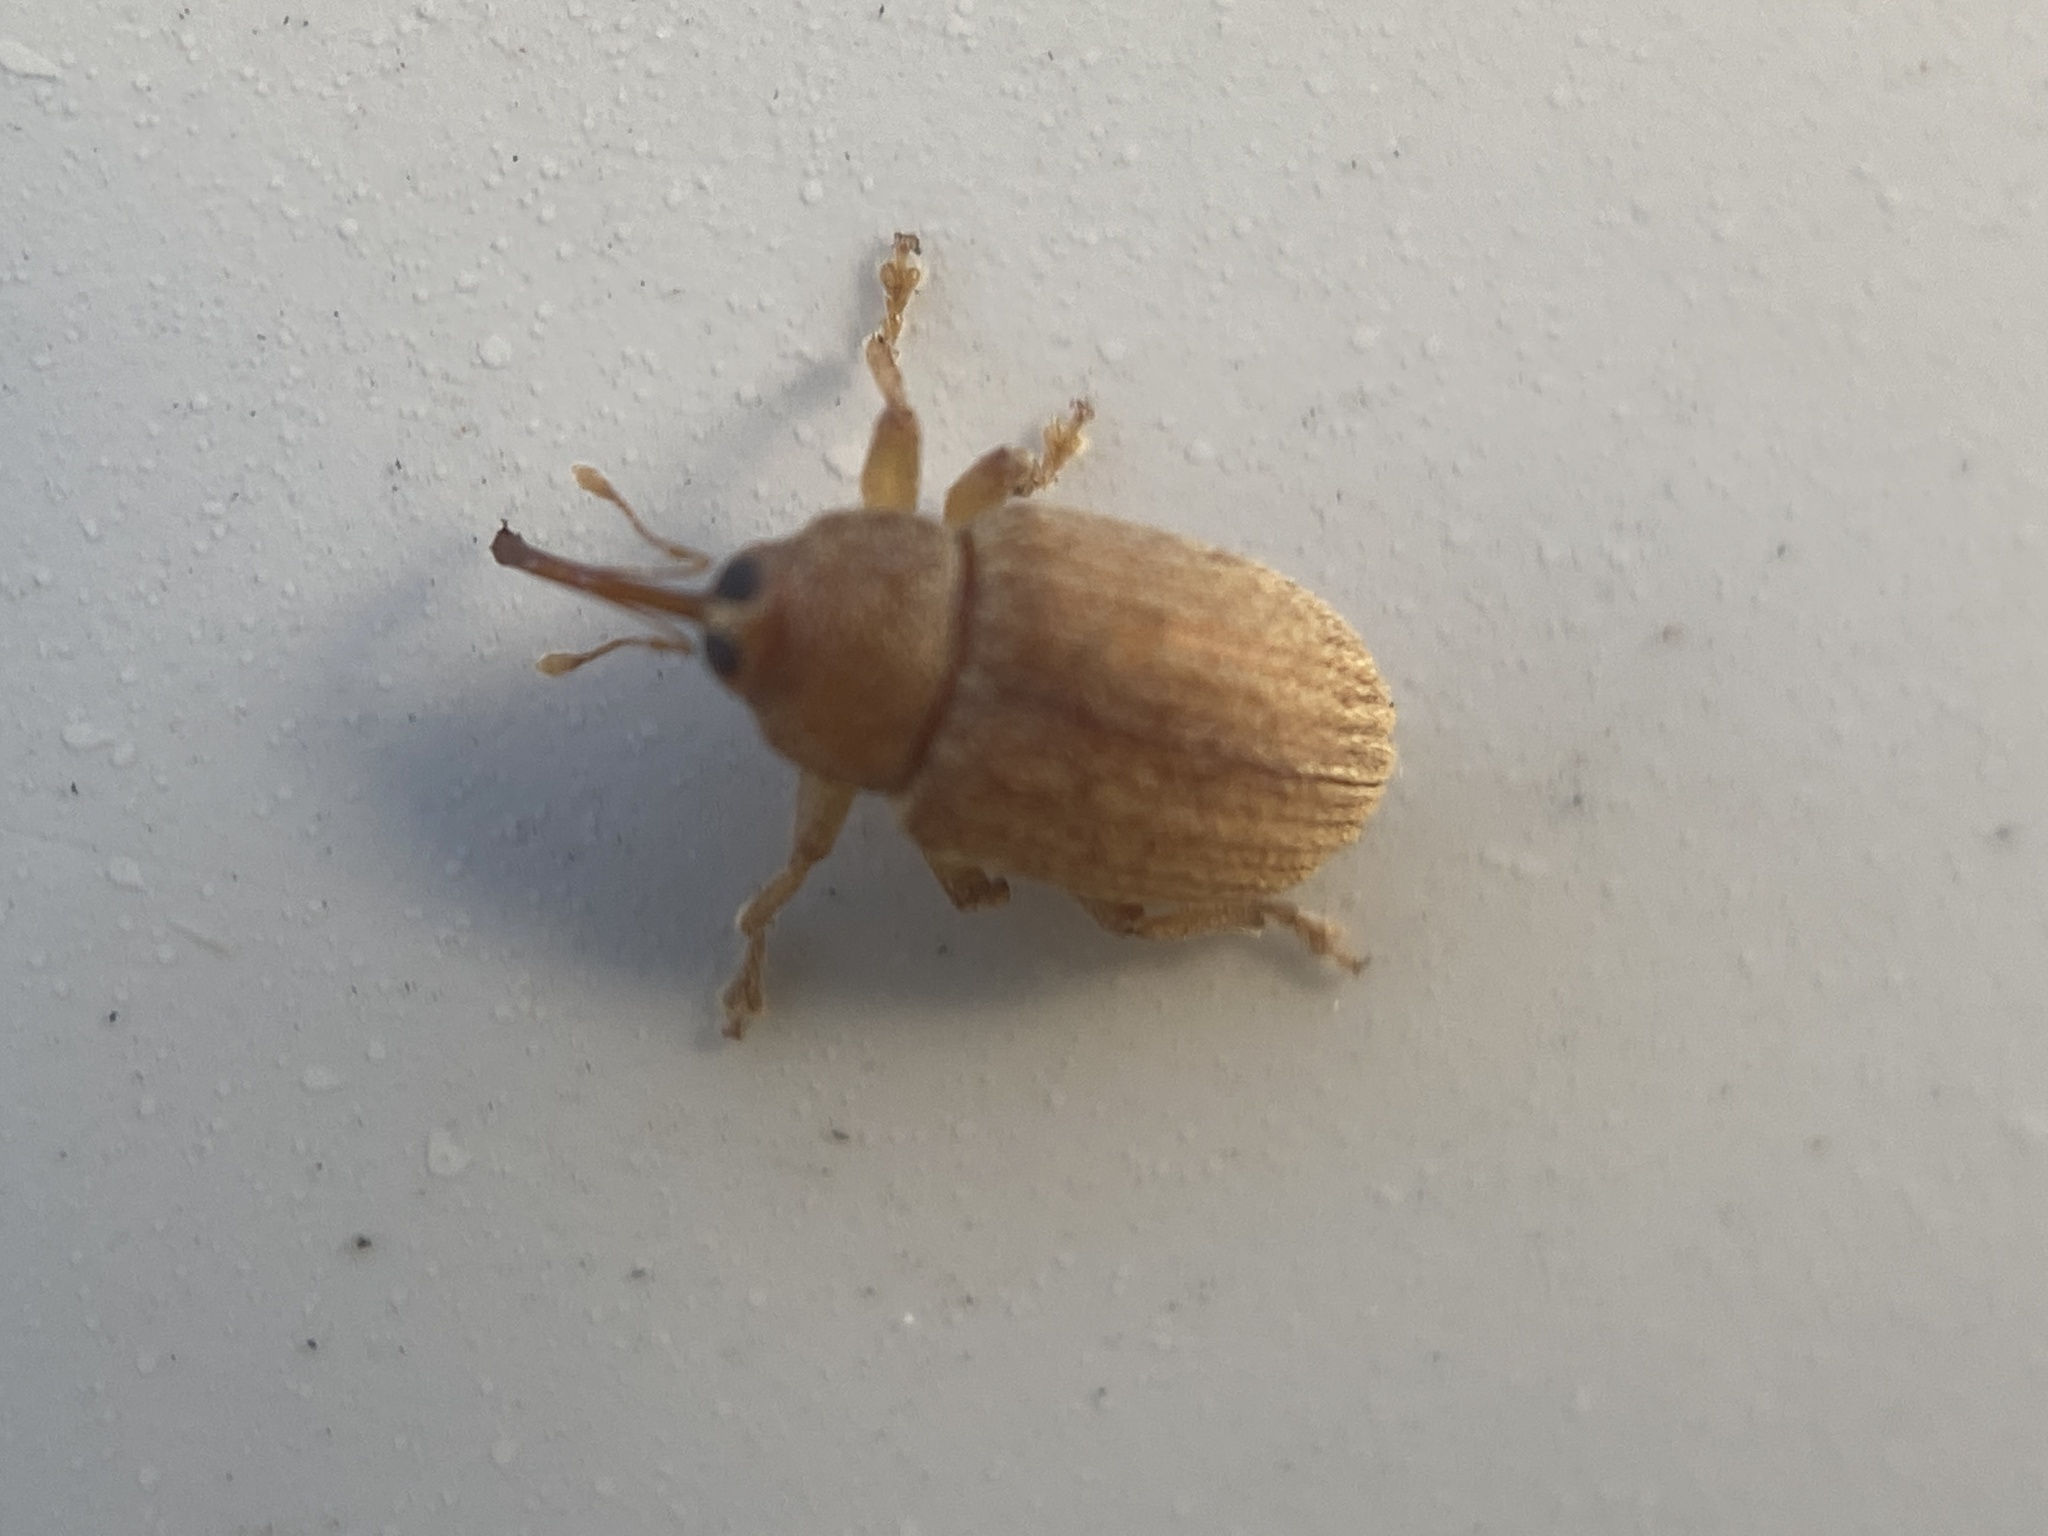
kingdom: Animalia
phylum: Arthropoda
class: Insecta
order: Coleoptera
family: Curculionidae
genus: Lignyodes
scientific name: Lignyodes helvolus
